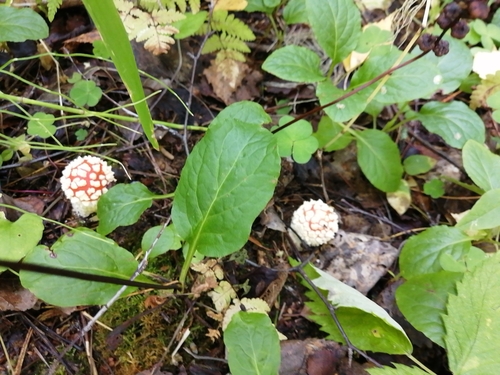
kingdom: Fungi
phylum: Basidiomycota
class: Agaricomycetes
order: Agaricales
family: Amanitaceae
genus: Amanita
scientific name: Amanita muscaria
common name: Fly agaric
